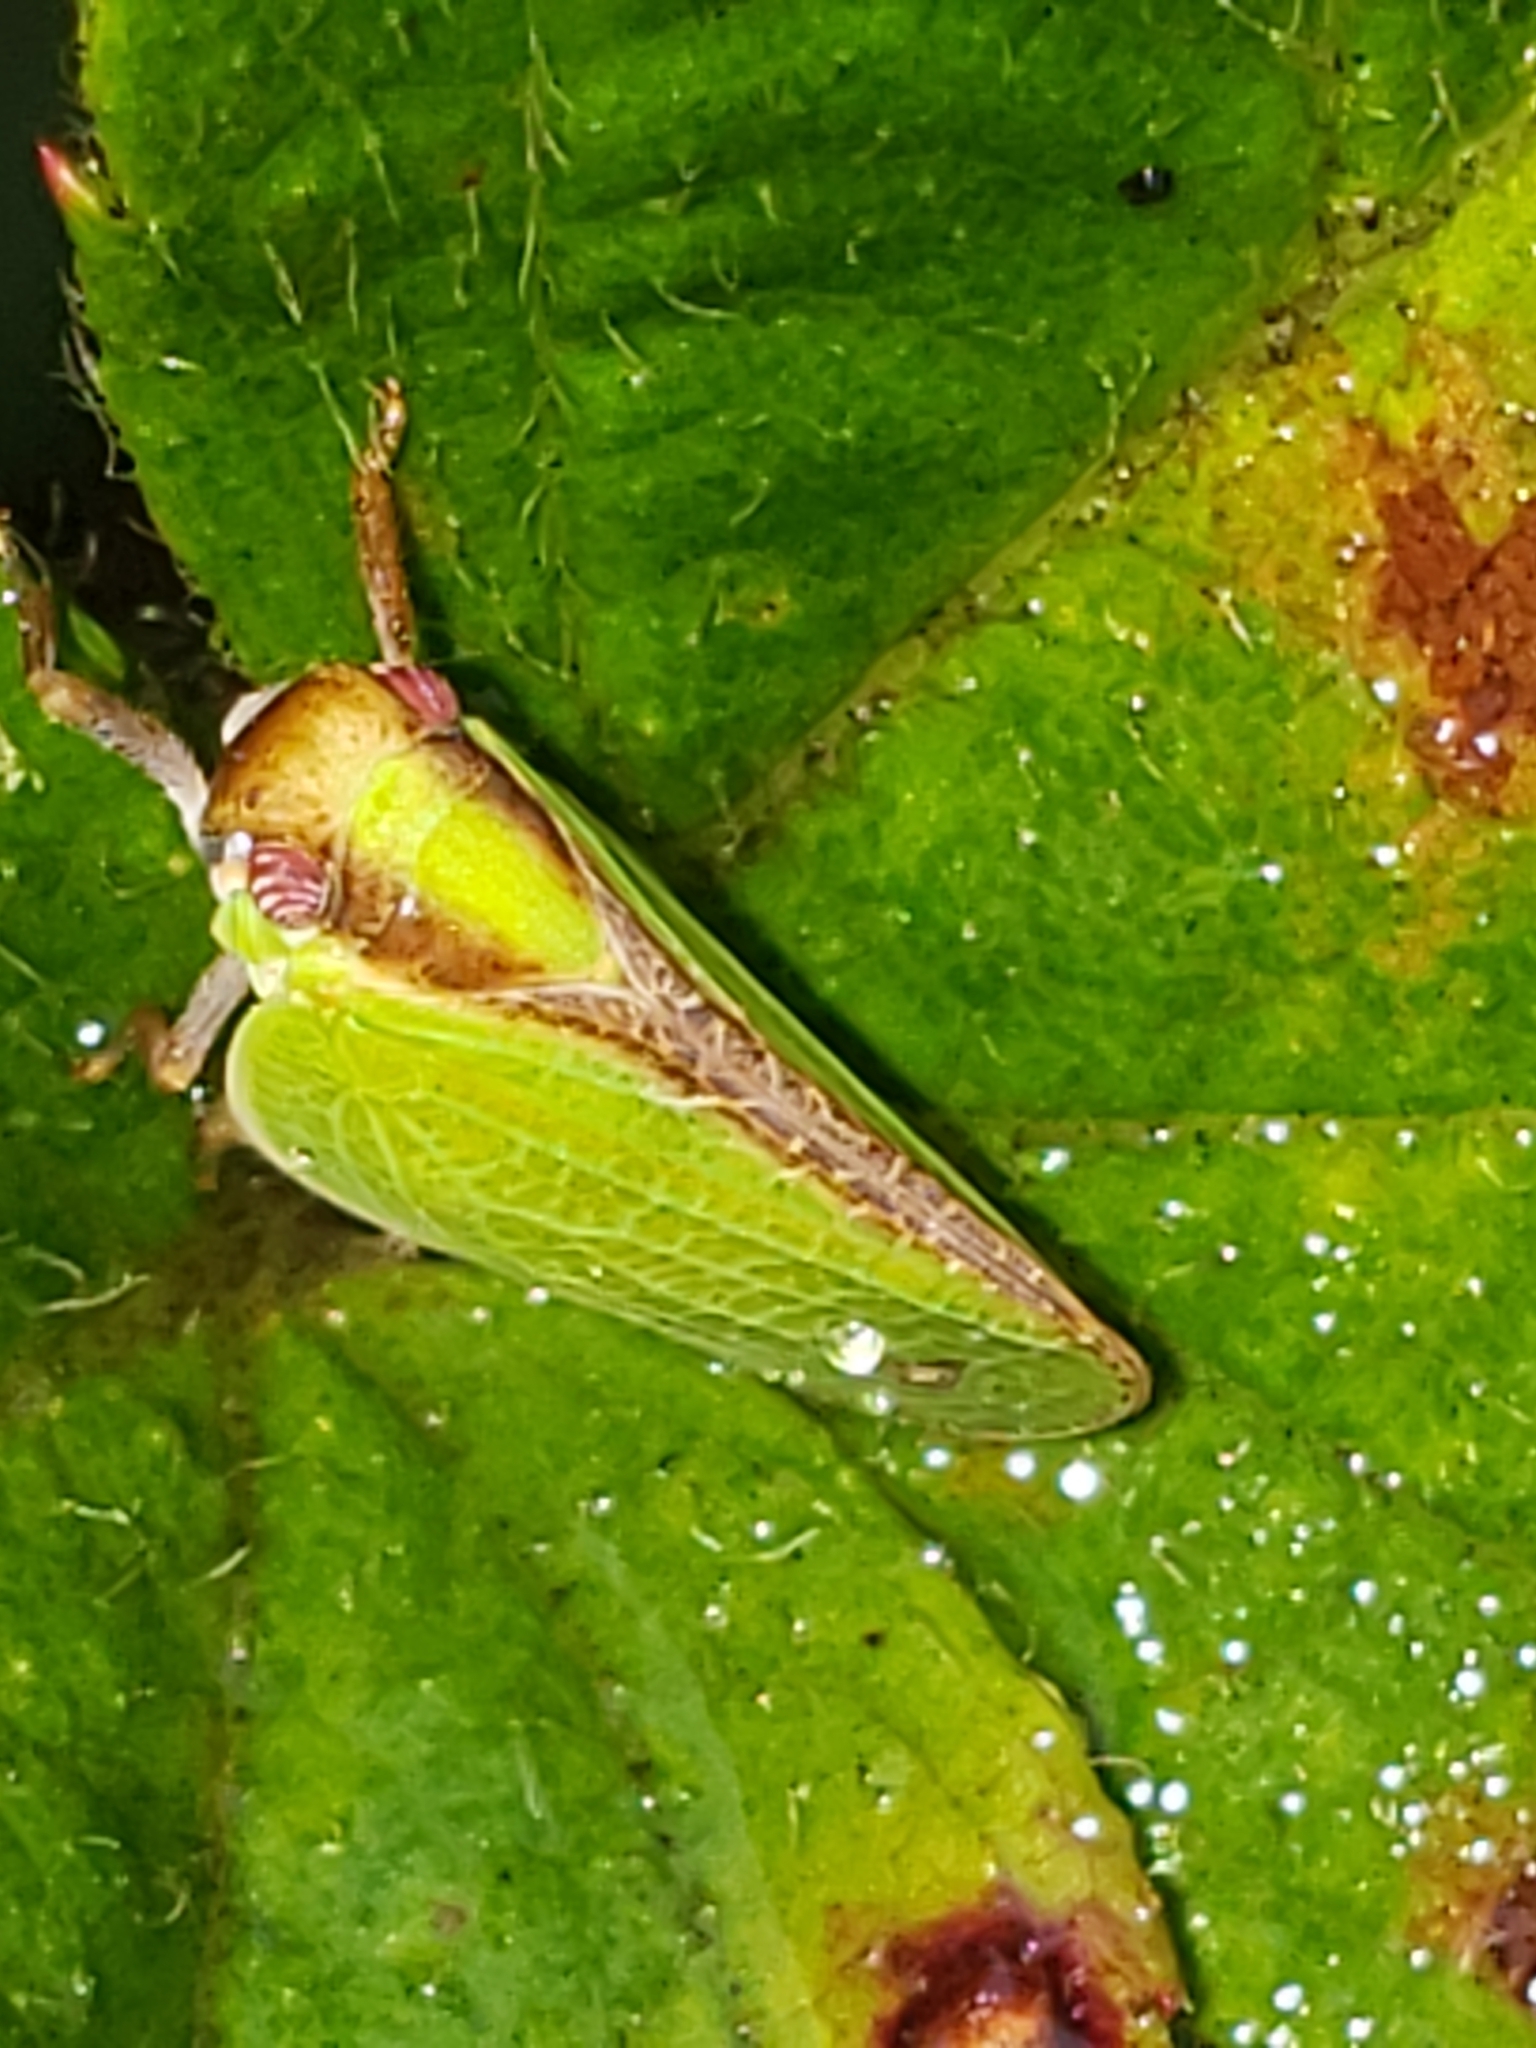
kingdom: Animalia
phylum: Arthropoda
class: Insecta
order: Hemiptera
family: Acanaloniidae
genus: Acanalonia
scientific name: Acanalonia bivittata
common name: Two-striped planthopper
